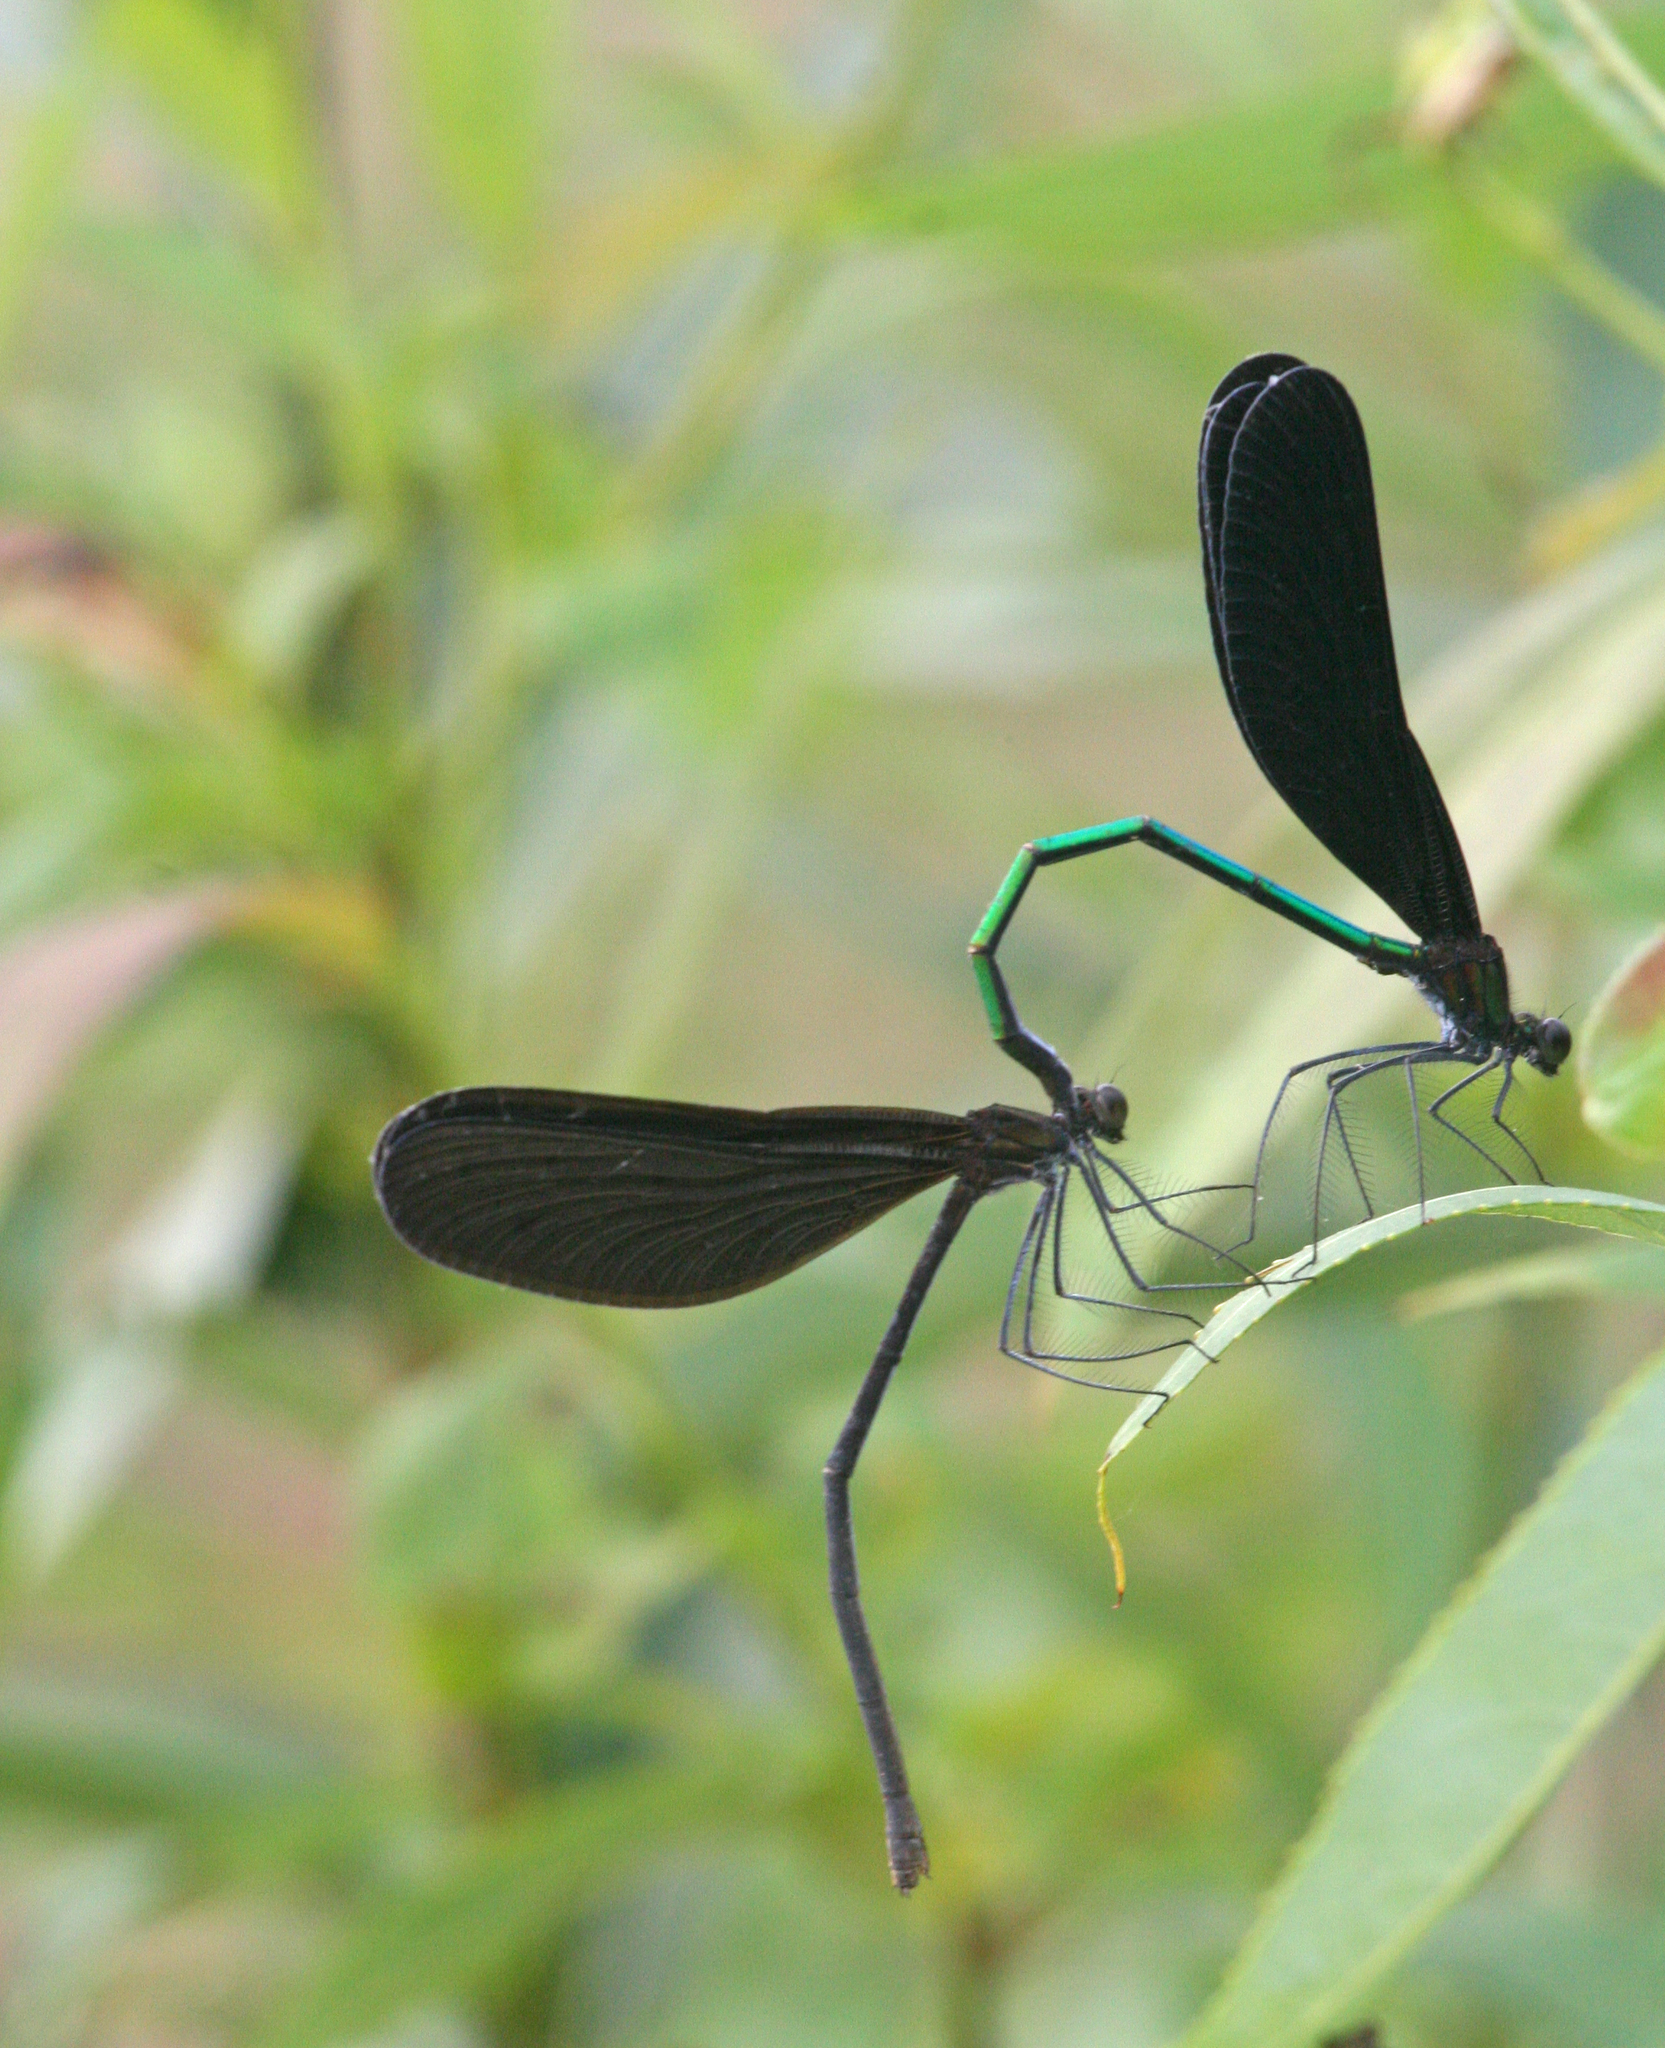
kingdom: Animalia
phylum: Arthropoda
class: Insecta
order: Odonata
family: Calopterygidae
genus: Atrocalopteryx
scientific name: Atrocalopteryx atrata
